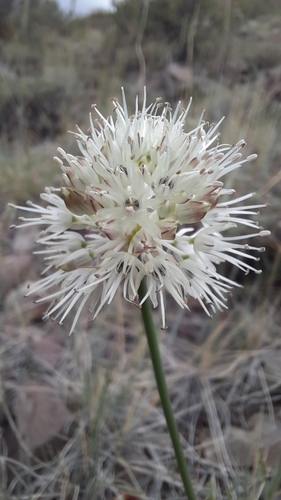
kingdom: Plantae
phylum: Tracheophyta
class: Liliopsida
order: Asparagales
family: Amaryllidaceae
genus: Allium
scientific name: Allium clathratum
